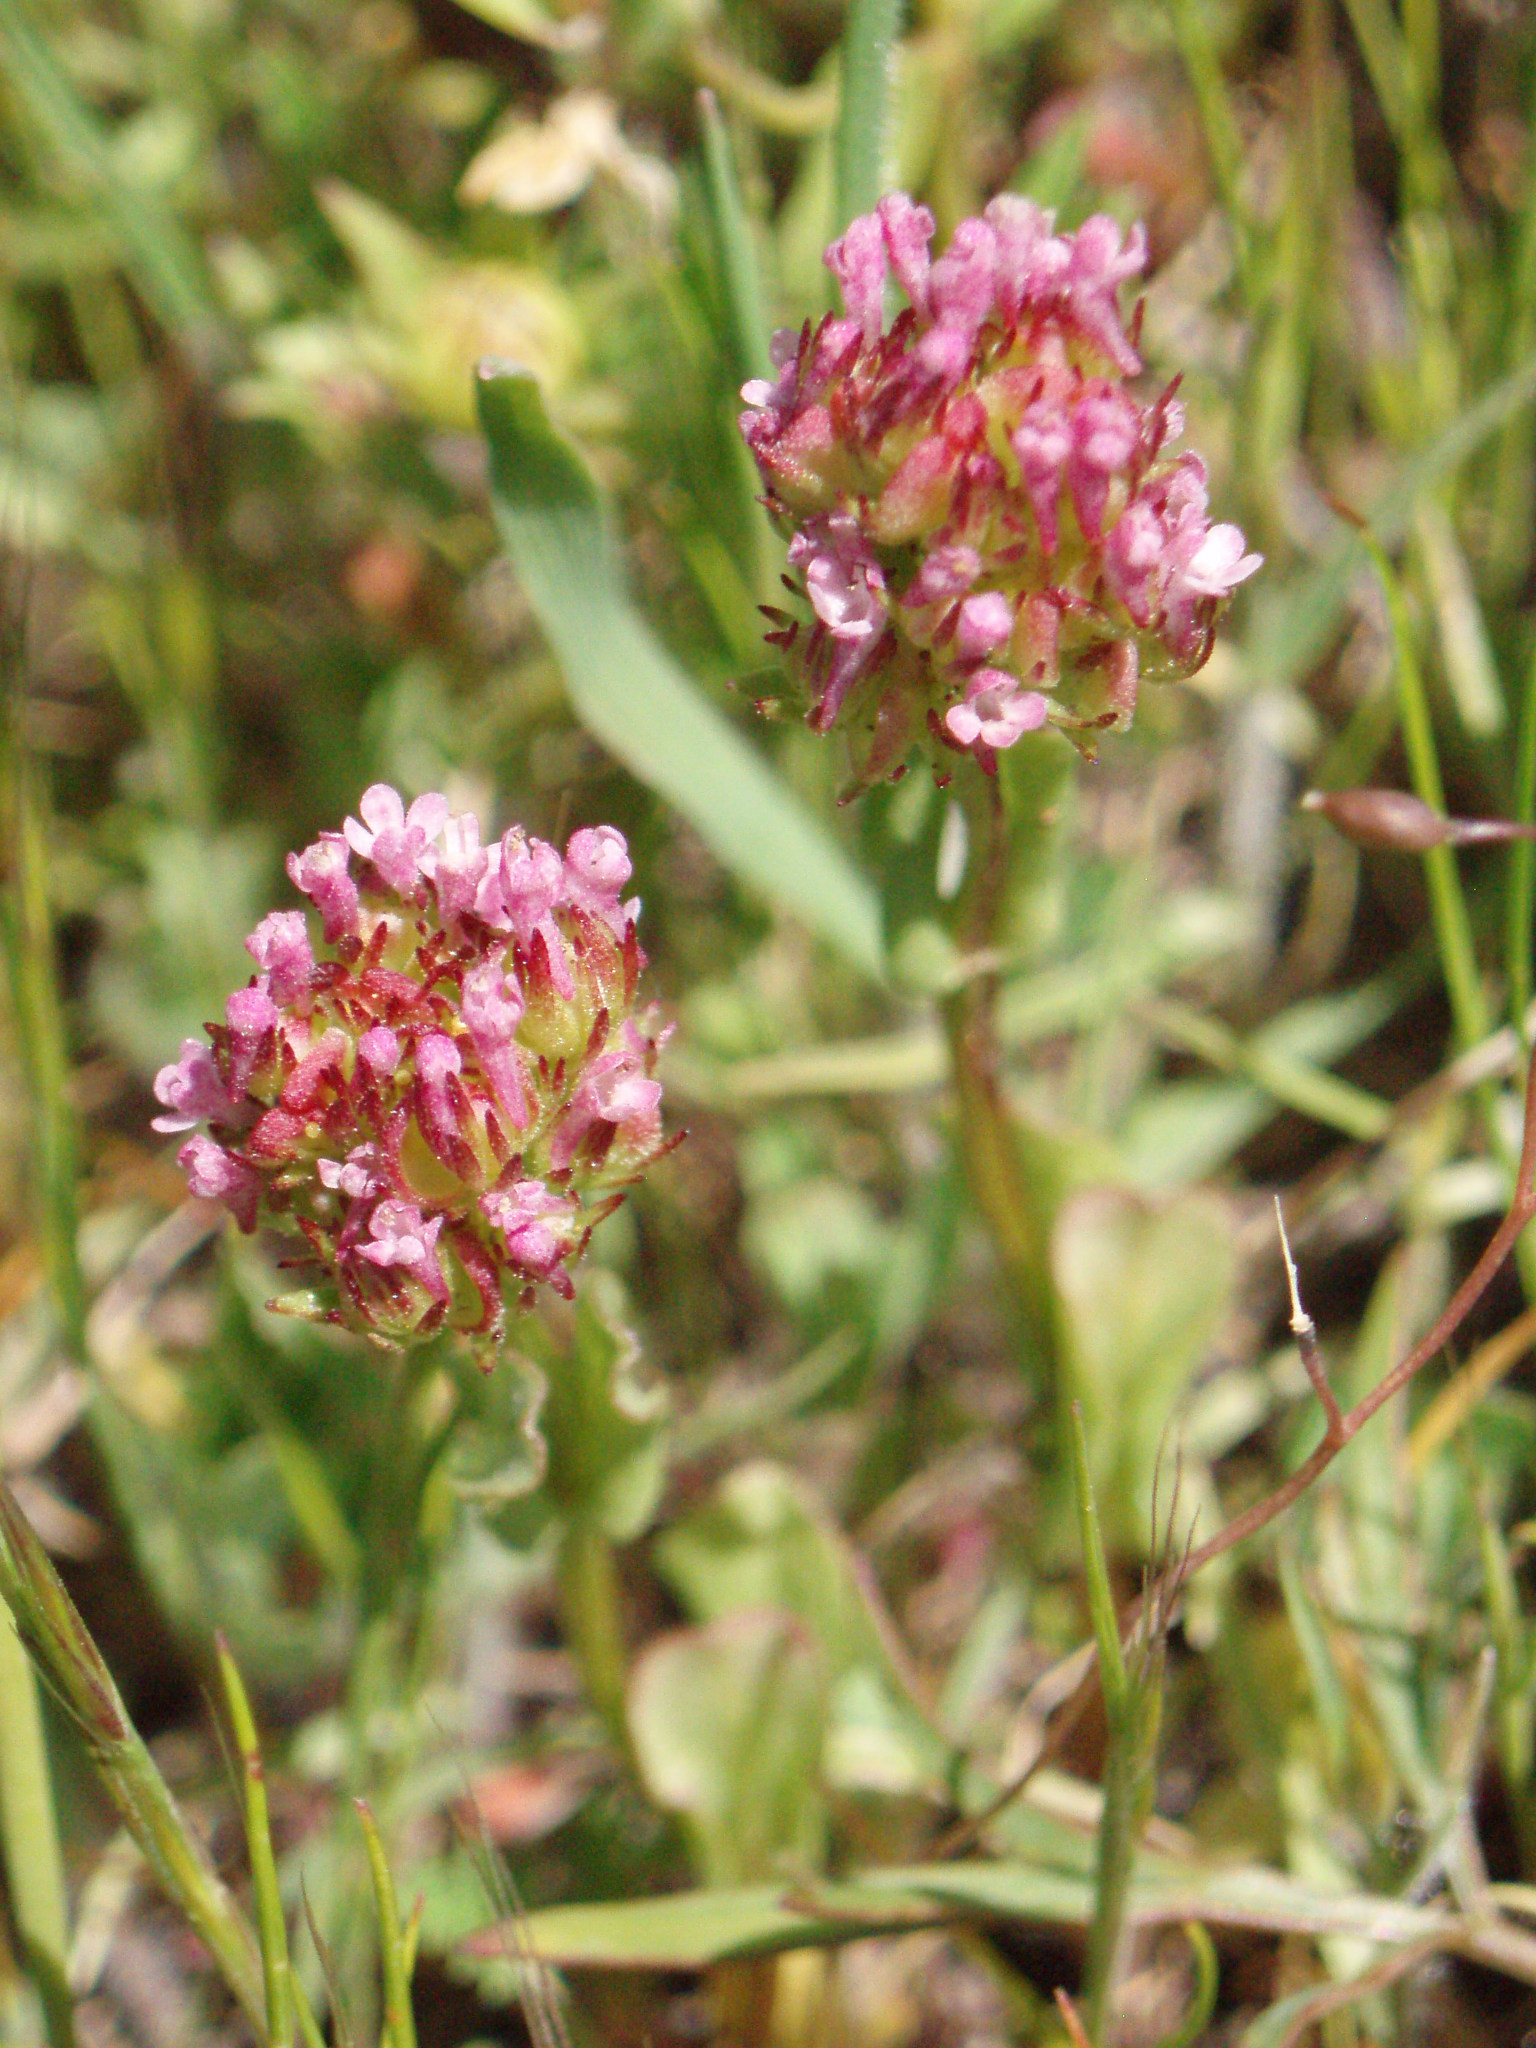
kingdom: Plantae
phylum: Tracheophyta
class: Magnoliopsida
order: Dipsacales
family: Caprifoliaceae
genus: Plectritis
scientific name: Plectritis ciliosa
